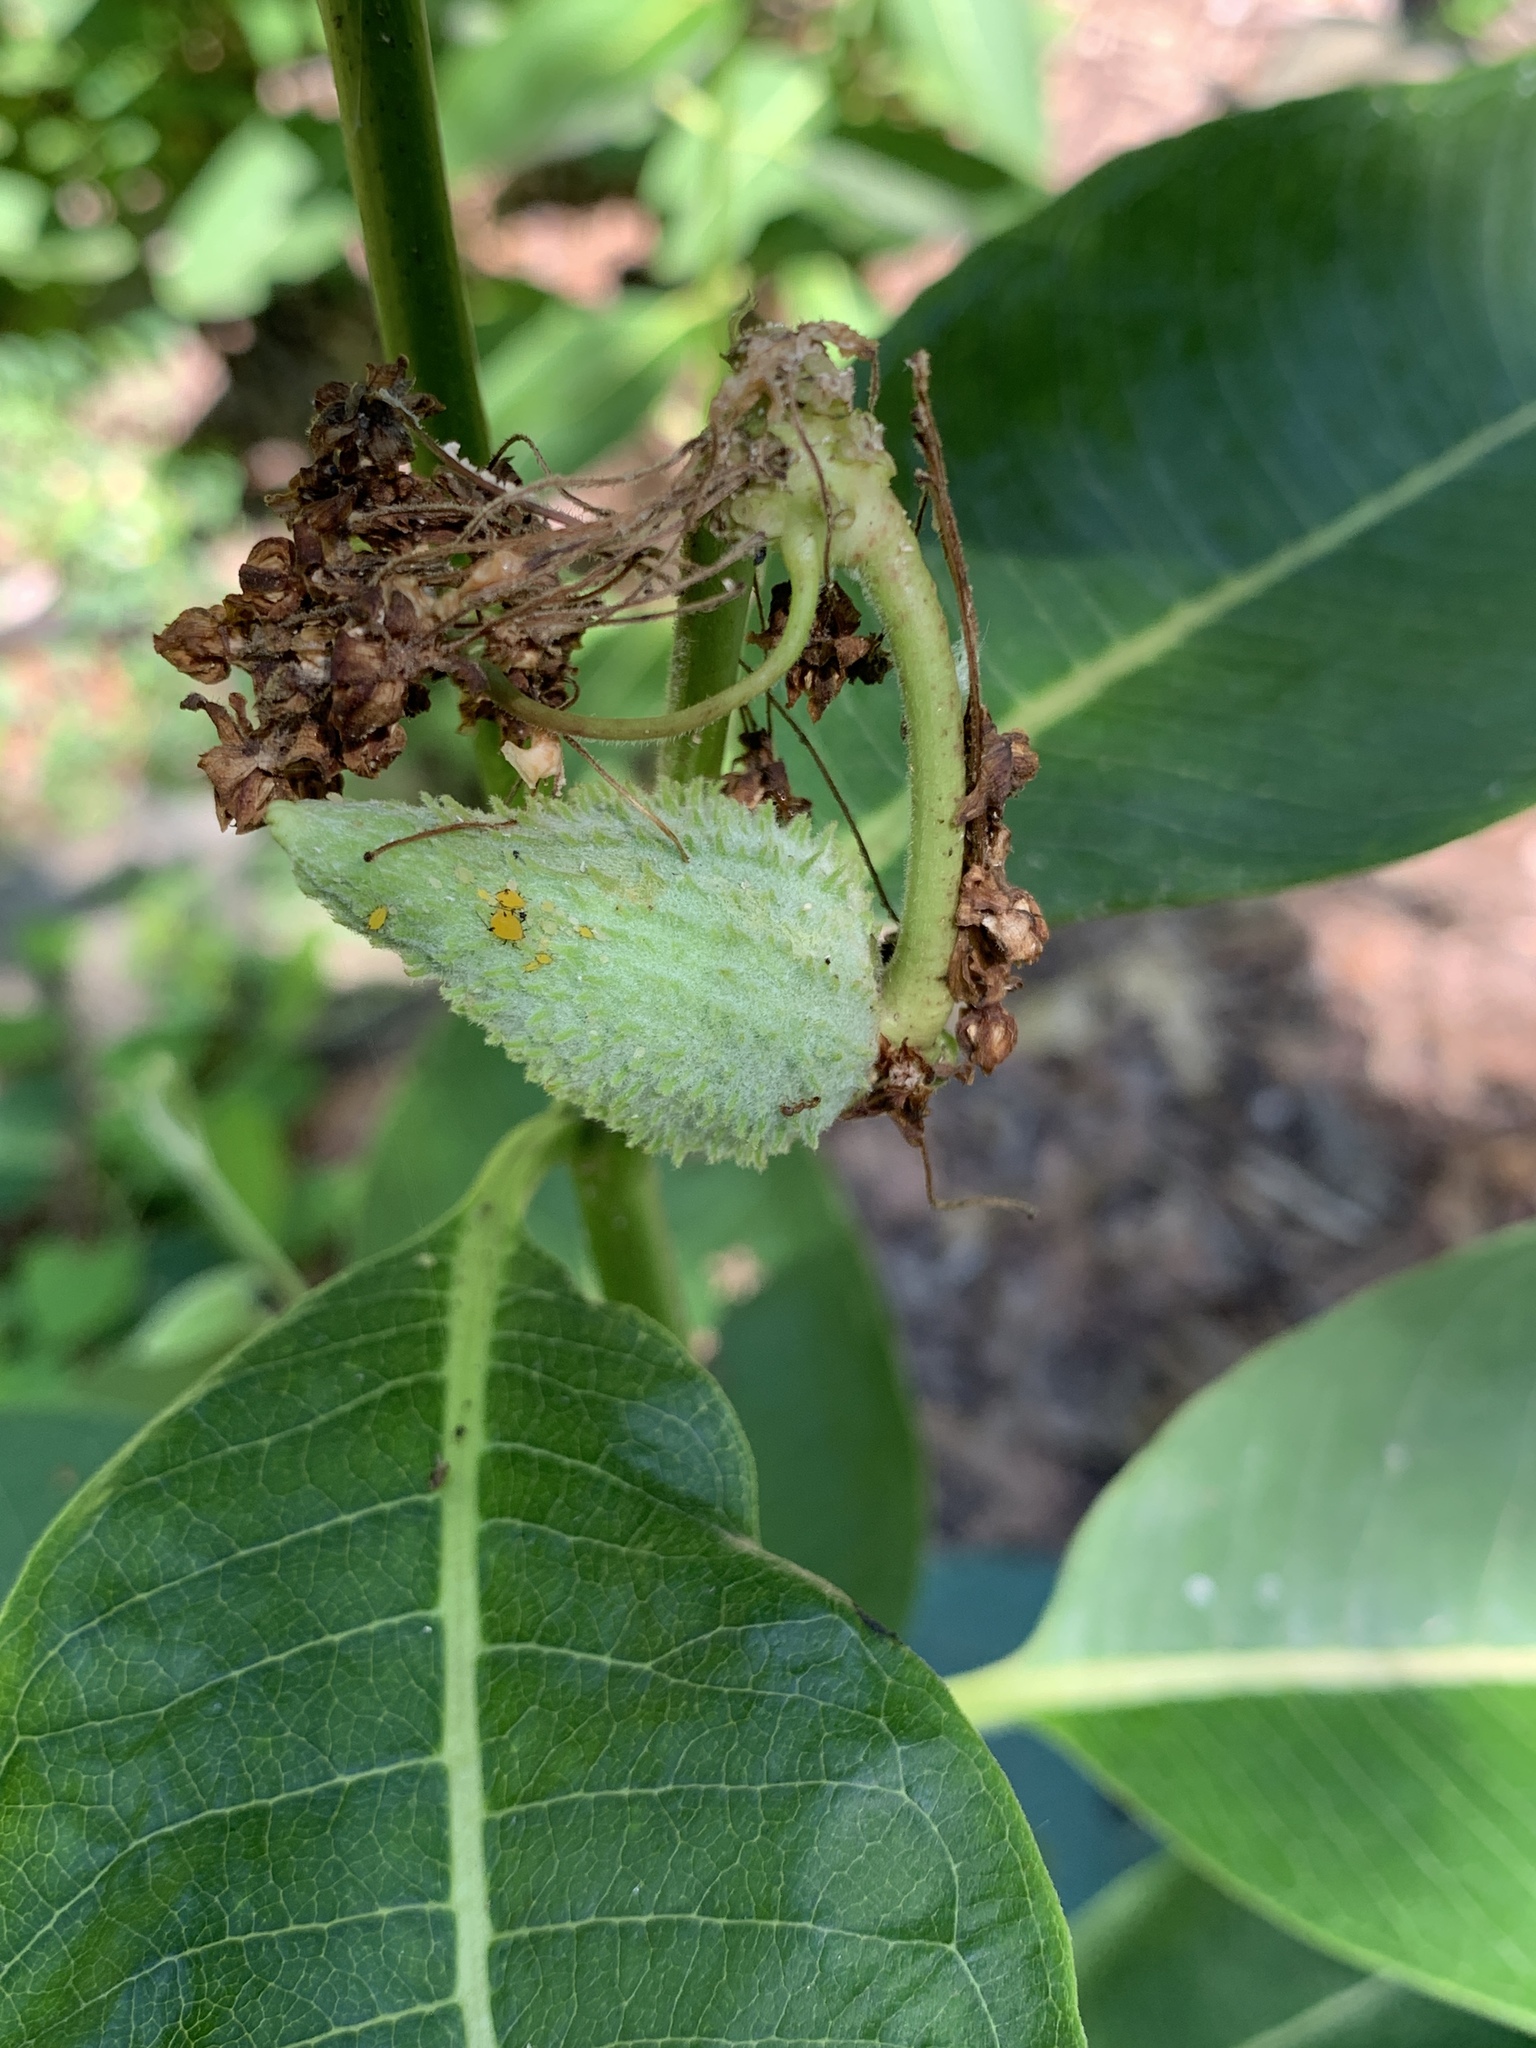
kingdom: Plantae
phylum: Tracheophyta
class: Magnoliopsida
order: Gentianales
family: Apocynaceae
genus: Asclepias
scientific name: Asclepias syriaca
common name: Common milkweed
